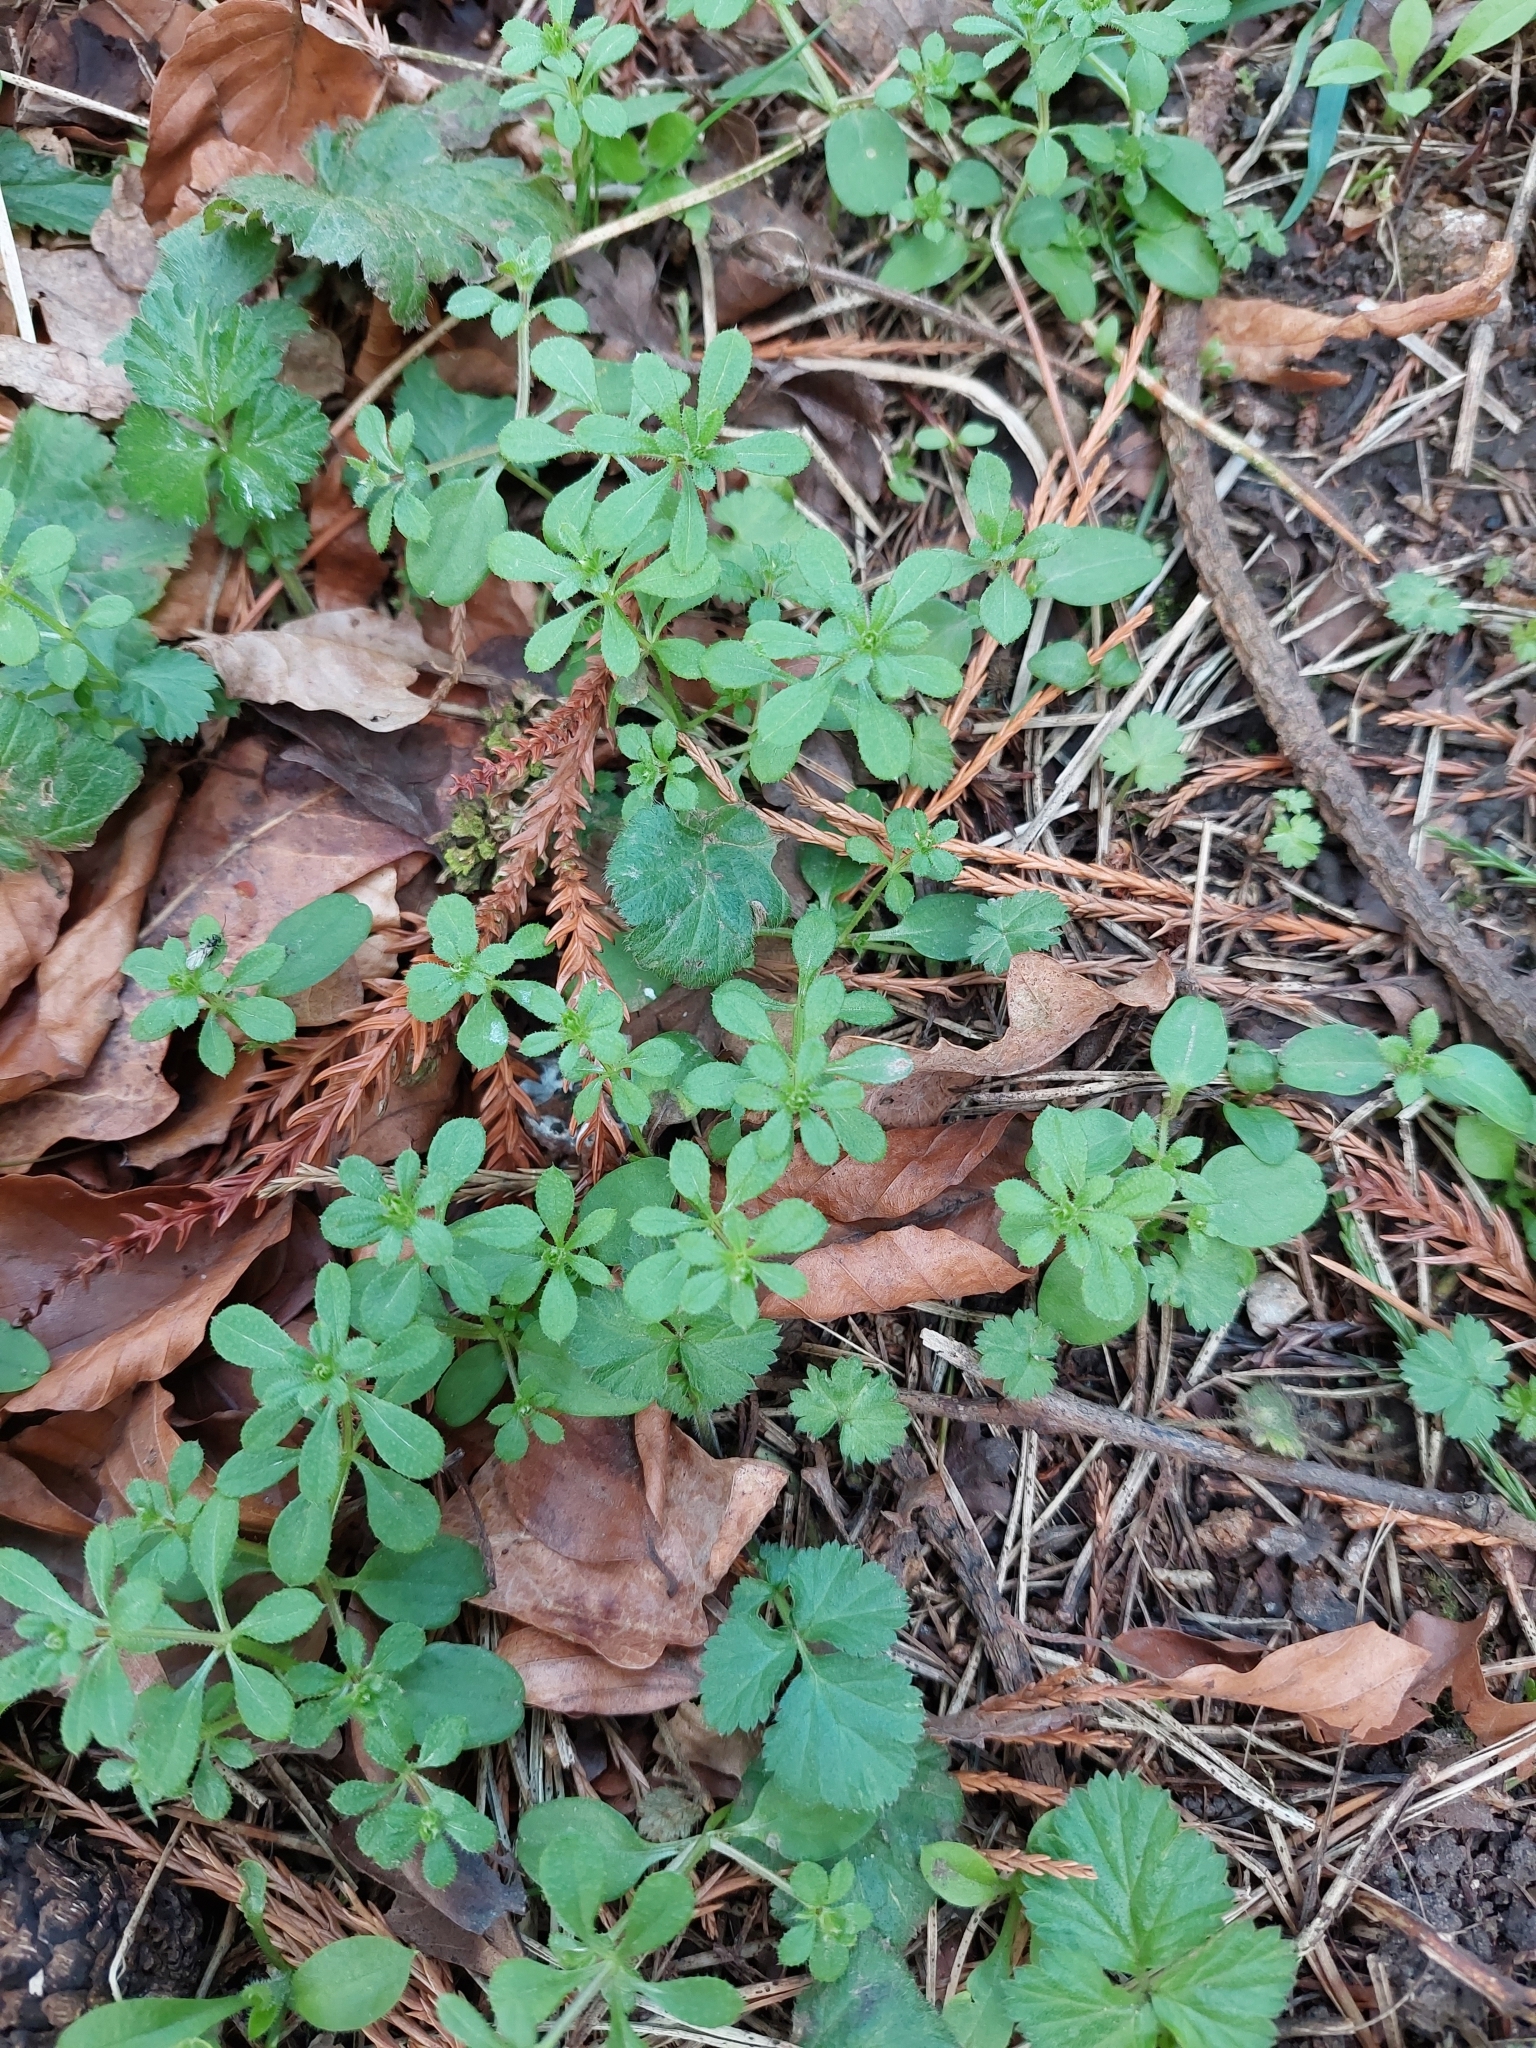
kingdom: Plantae
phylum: Tracheophyta
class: Magnoliopsida
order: Gentianales
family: Rubiaceae
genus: Galium
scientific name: Galium aparine
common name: Cleavers
